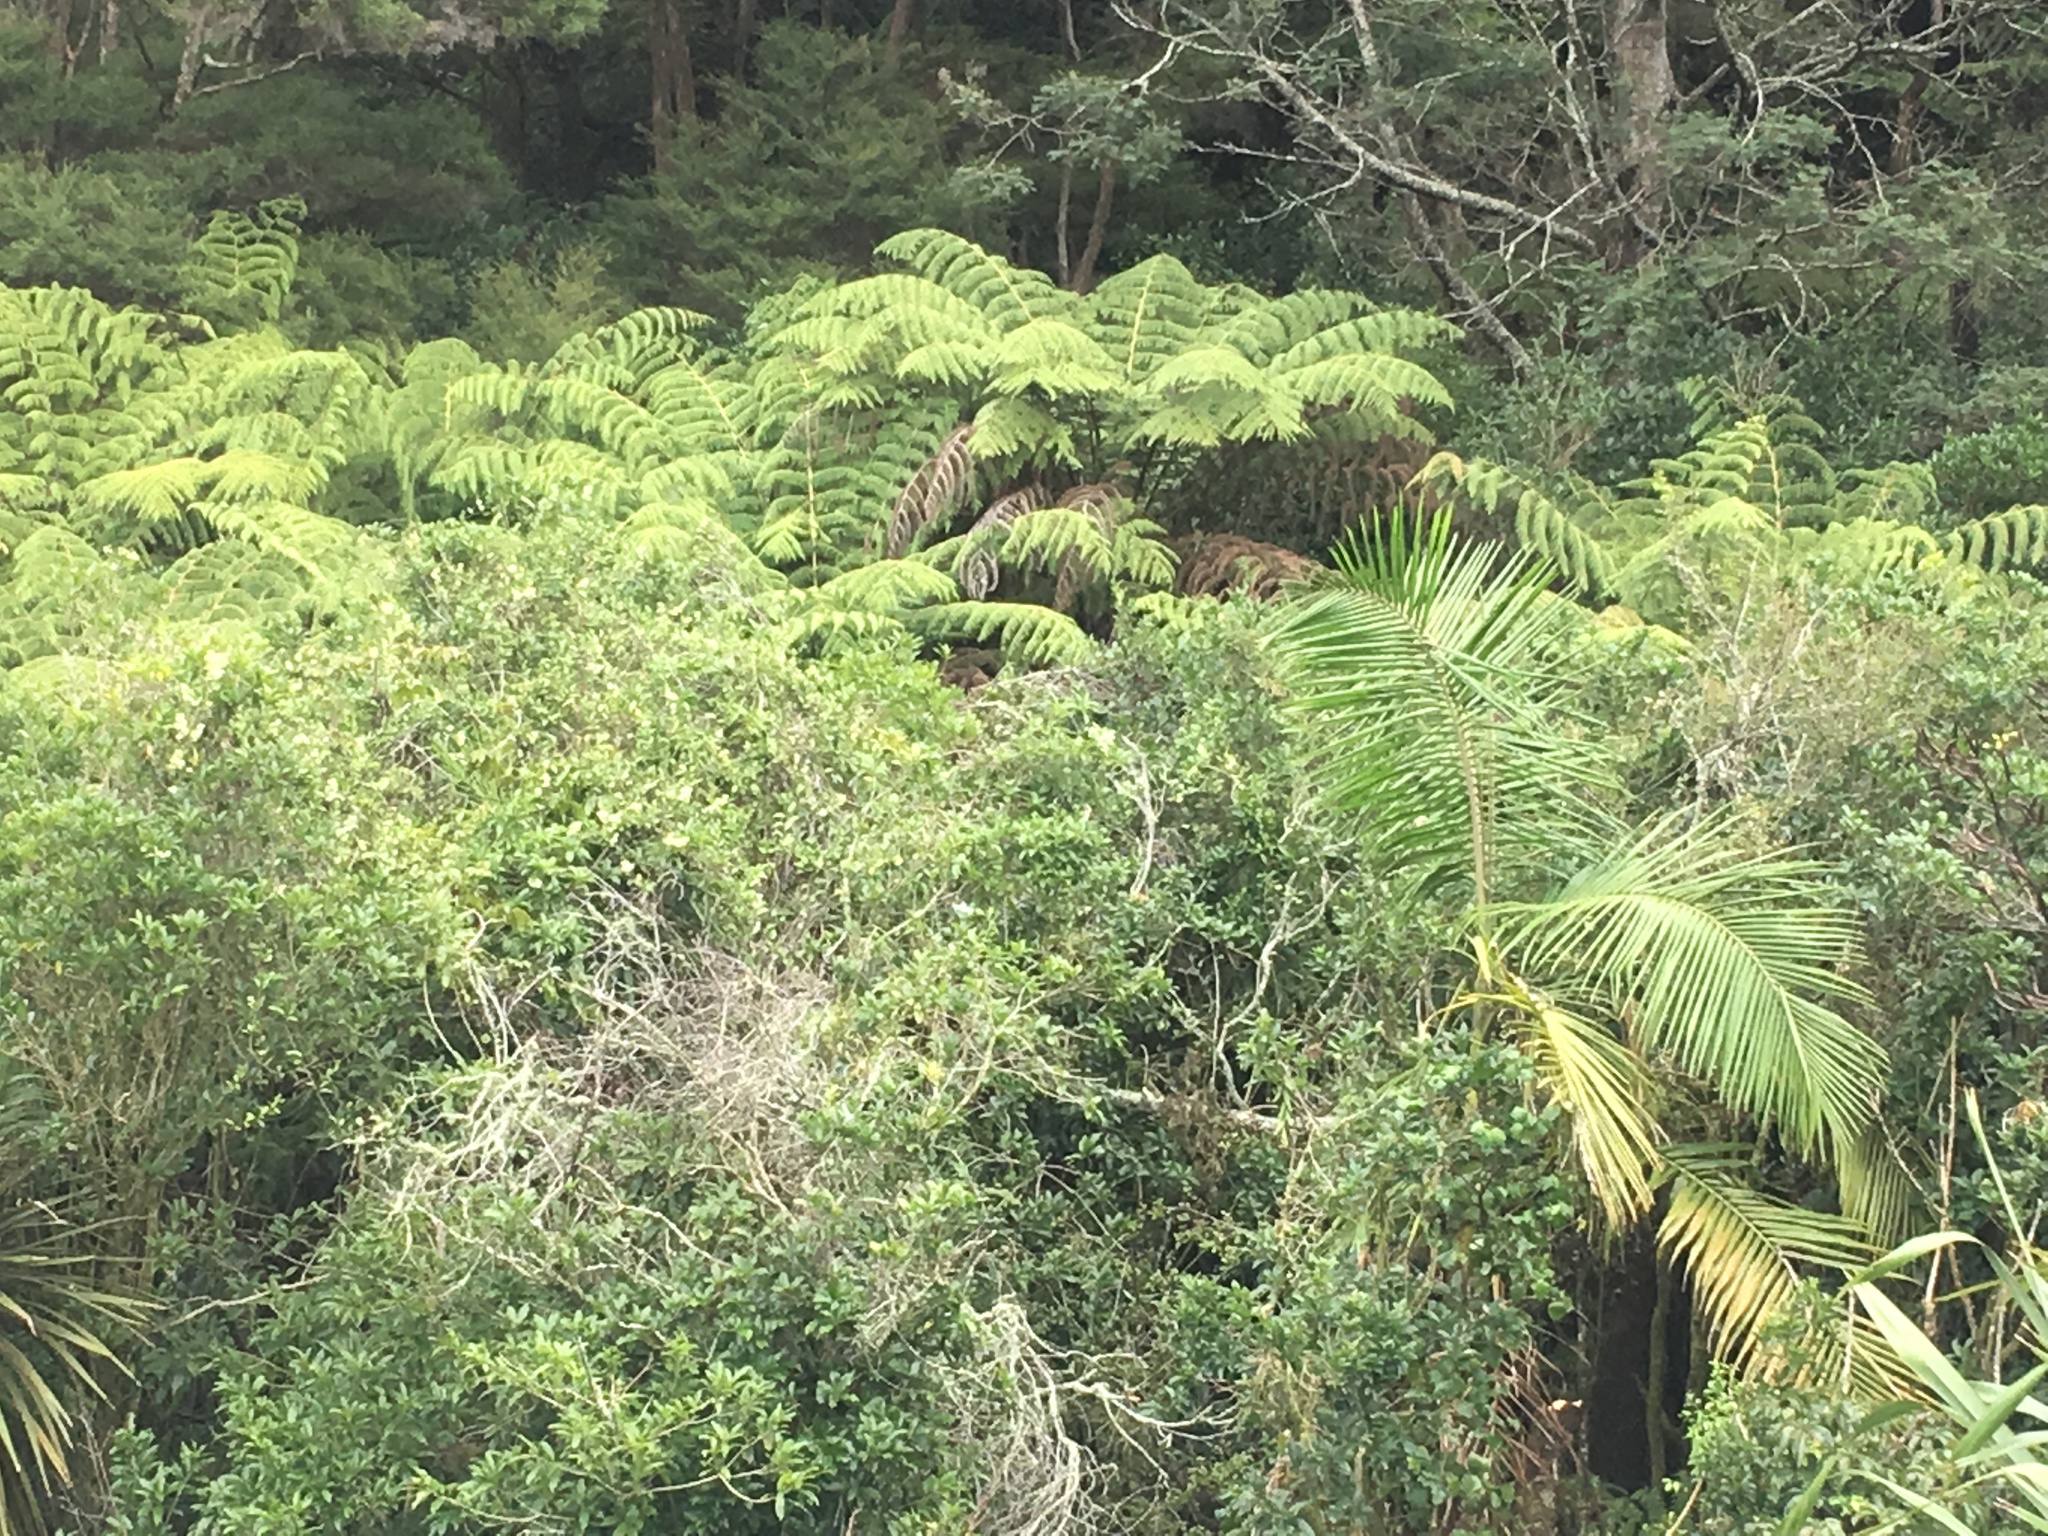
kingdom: Plantae
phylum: Tracheophyta
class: Liliopsida
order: Arecales
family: Arecaceae
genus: Archontophoenix
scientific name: Archontophoenix cunninghamiana
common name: Piccabeen bangalow palm
